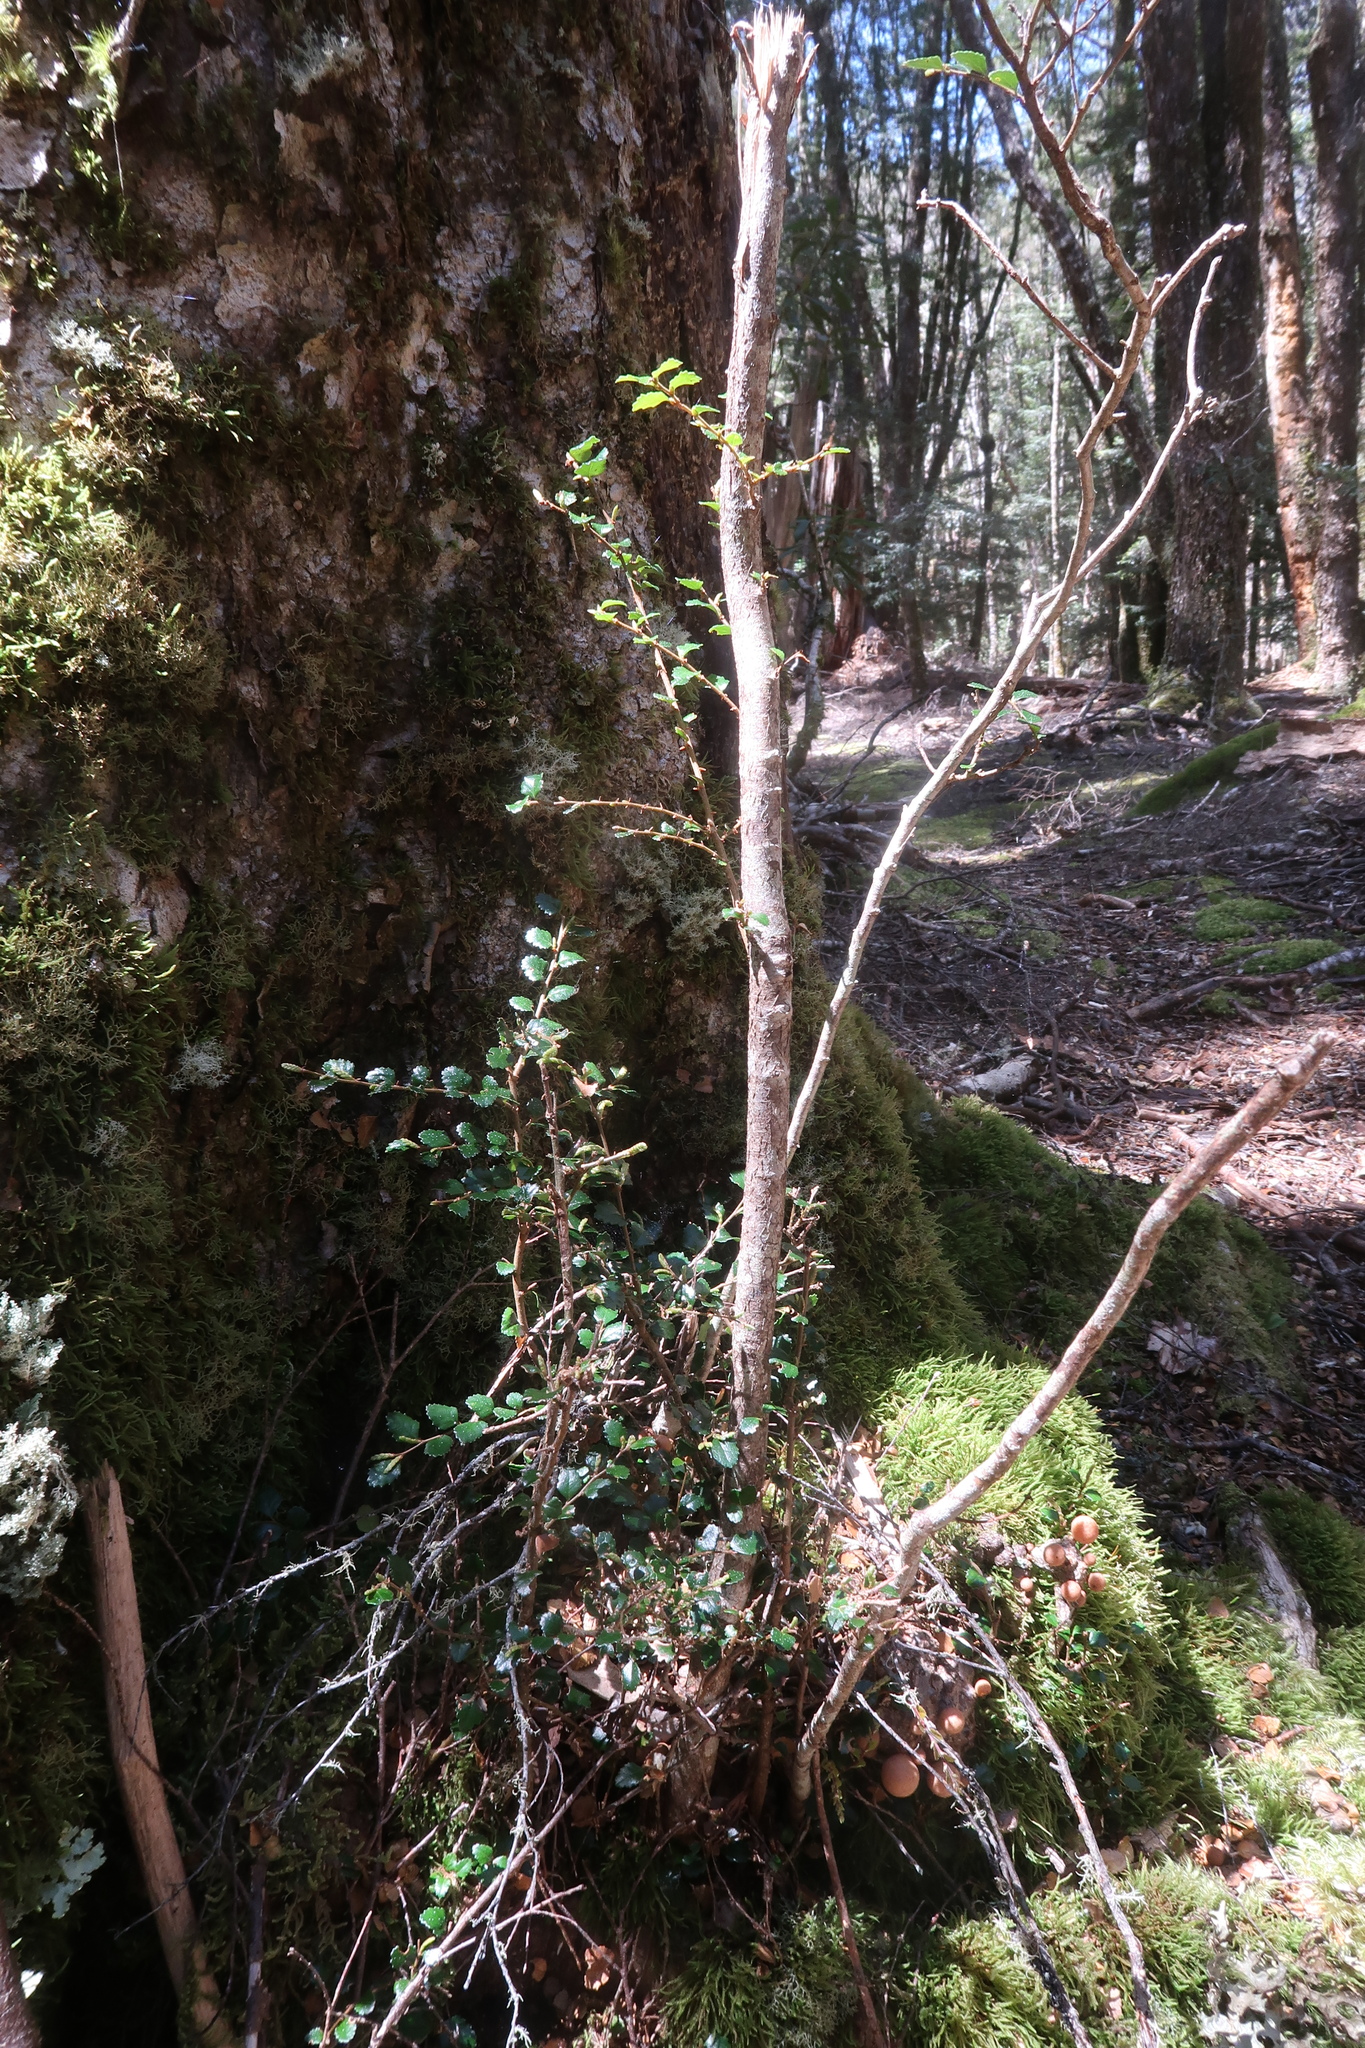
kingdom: Plantae
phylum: Tracheophyta
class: Magnoliopsida
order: Fagales
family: Nothofagaceae
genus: Nothofagus
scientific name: Nothofagus cunninghamii
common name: Myrtle beech
